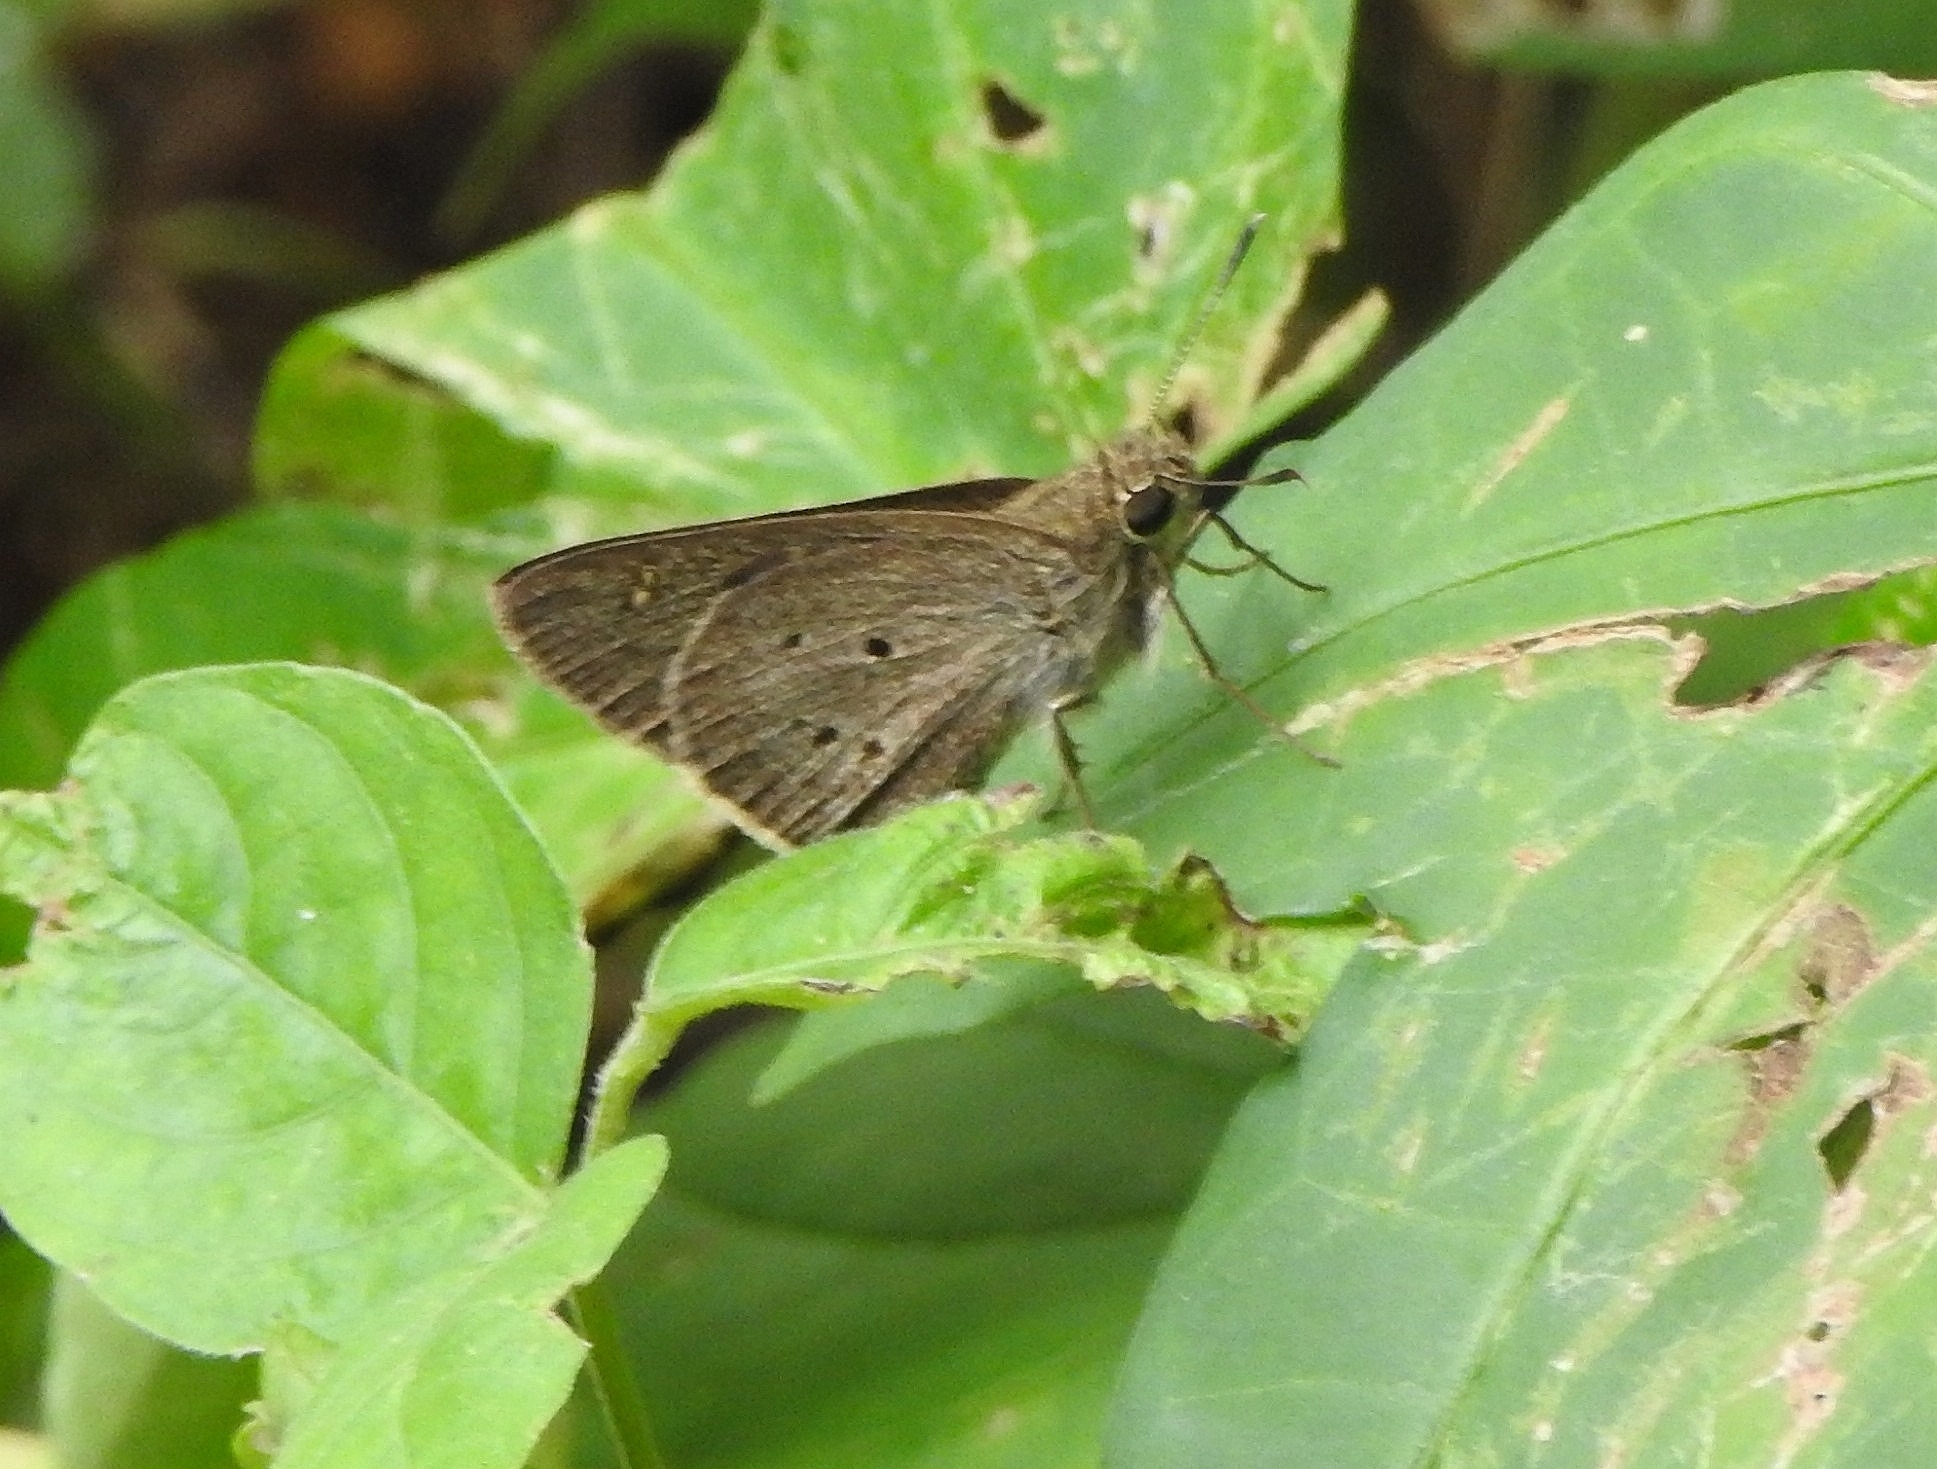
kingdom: Animalia
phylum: Arthropoda
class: Insecta
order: Lepidoptera
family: Hesperiidae
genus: Suastus
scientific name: Suastus gremius
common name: Indian palm bob
